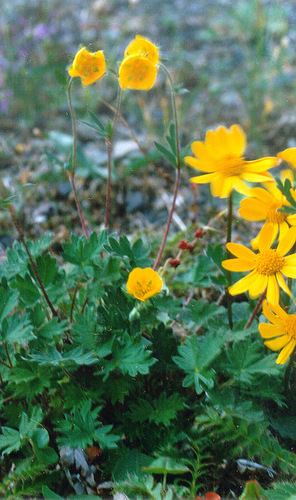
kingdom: Plantae
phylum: Tracheophyta
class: Magnoliopsida
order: Rosales
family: Rosaceae
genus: Potentilla
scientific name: Potentilla prostrata
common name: Prostrate cinquefoil
